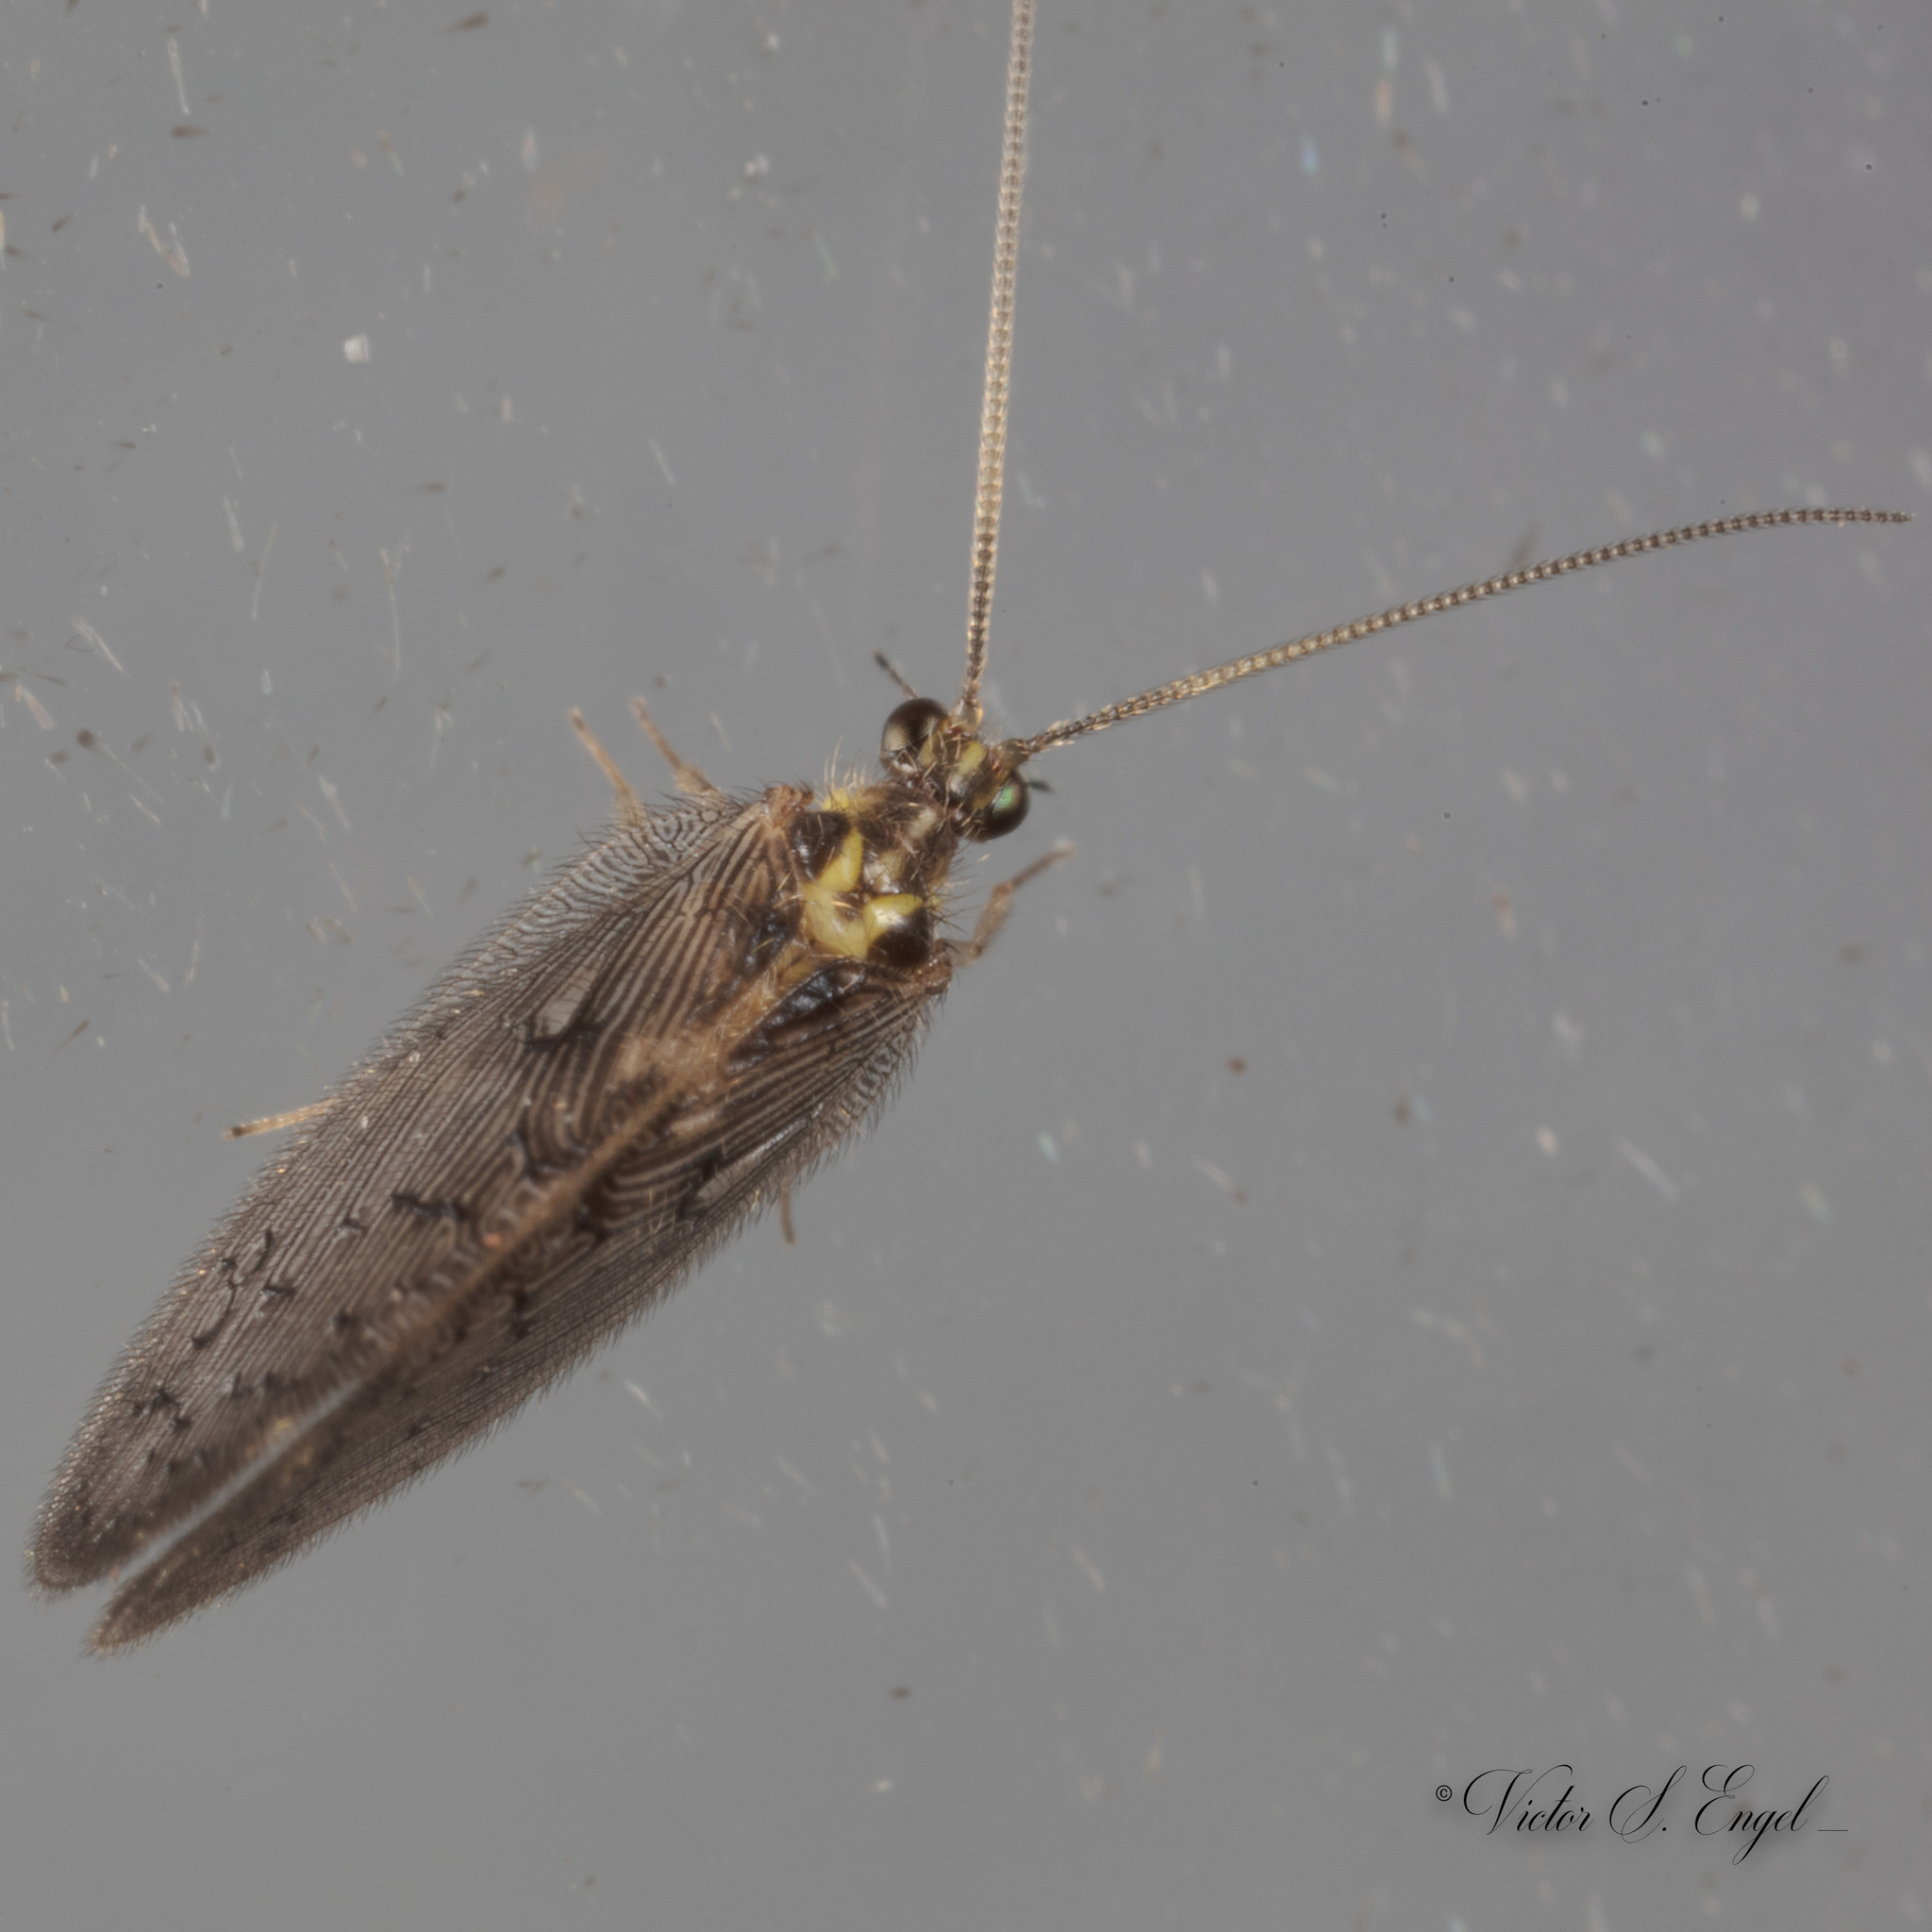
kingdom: Animalia
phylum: Arthropoda
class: Insecta
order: Neuroptera
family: Hemerobiidae
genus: Sympherobius
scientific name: Sympherobius occidentalis
